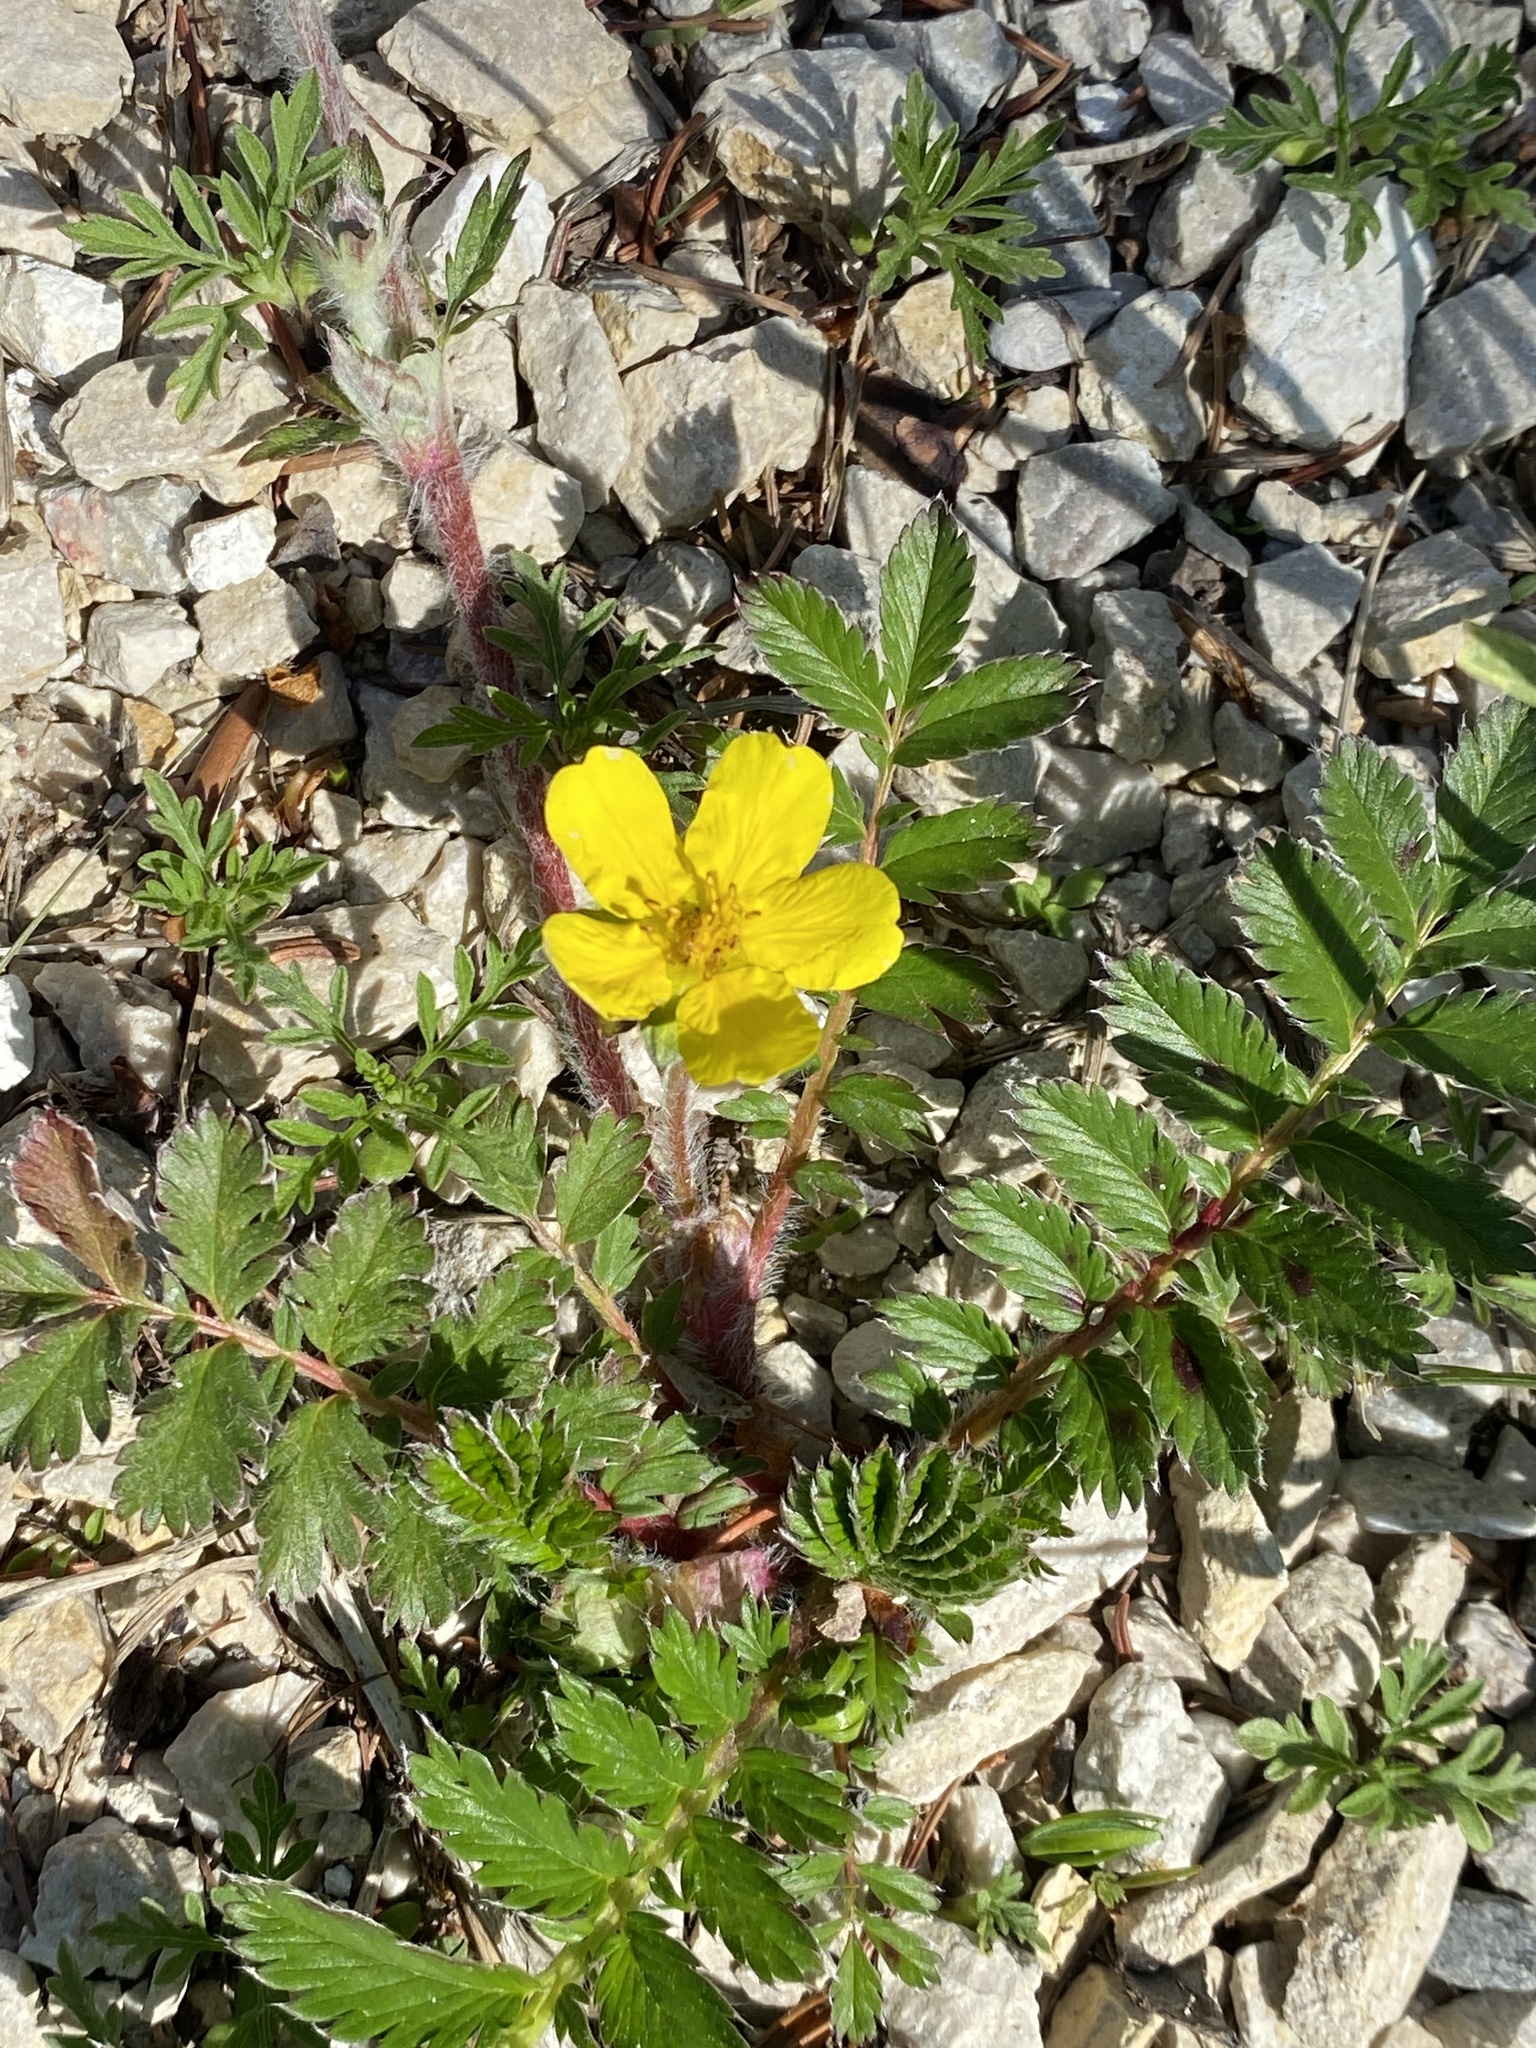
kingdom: Plantae
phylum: Tracheophyta
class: Magnoliopsida
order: Rosales
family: Rosaceae
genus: Argentina
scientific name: Argentina anserina
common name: Common silverweed
